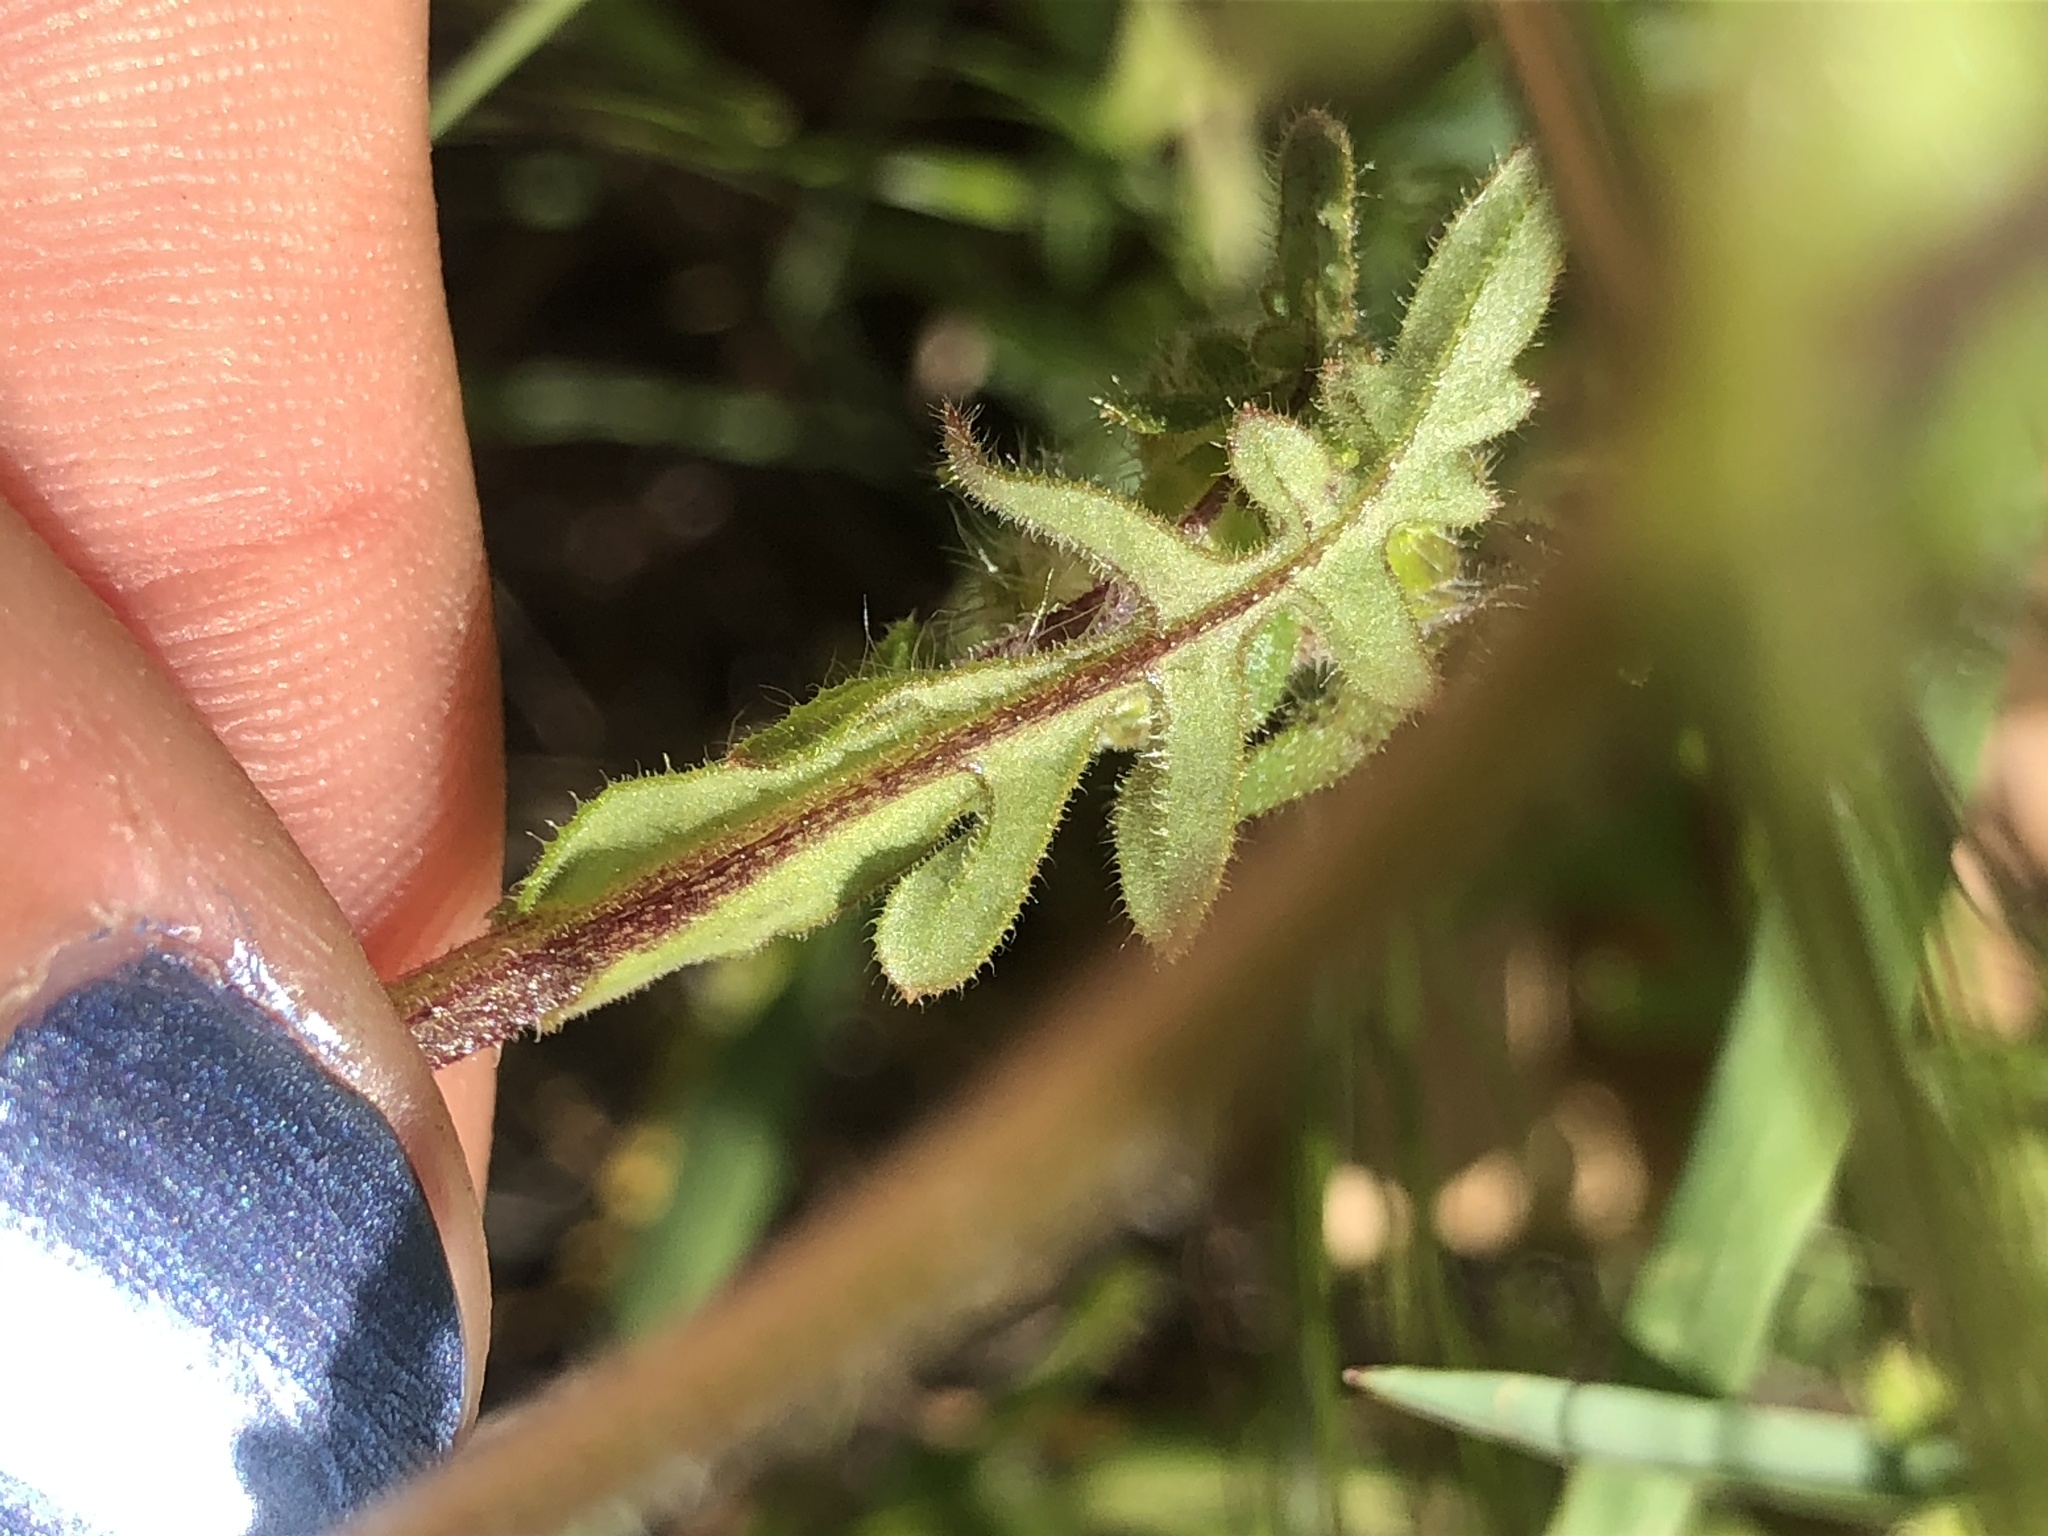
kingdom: Plantae
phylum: Tracheophyta
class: Magnoliopsida
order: Boraginales
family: Hydrophyllaceae
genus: Pholistoma
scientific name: Pholistoma auritum
